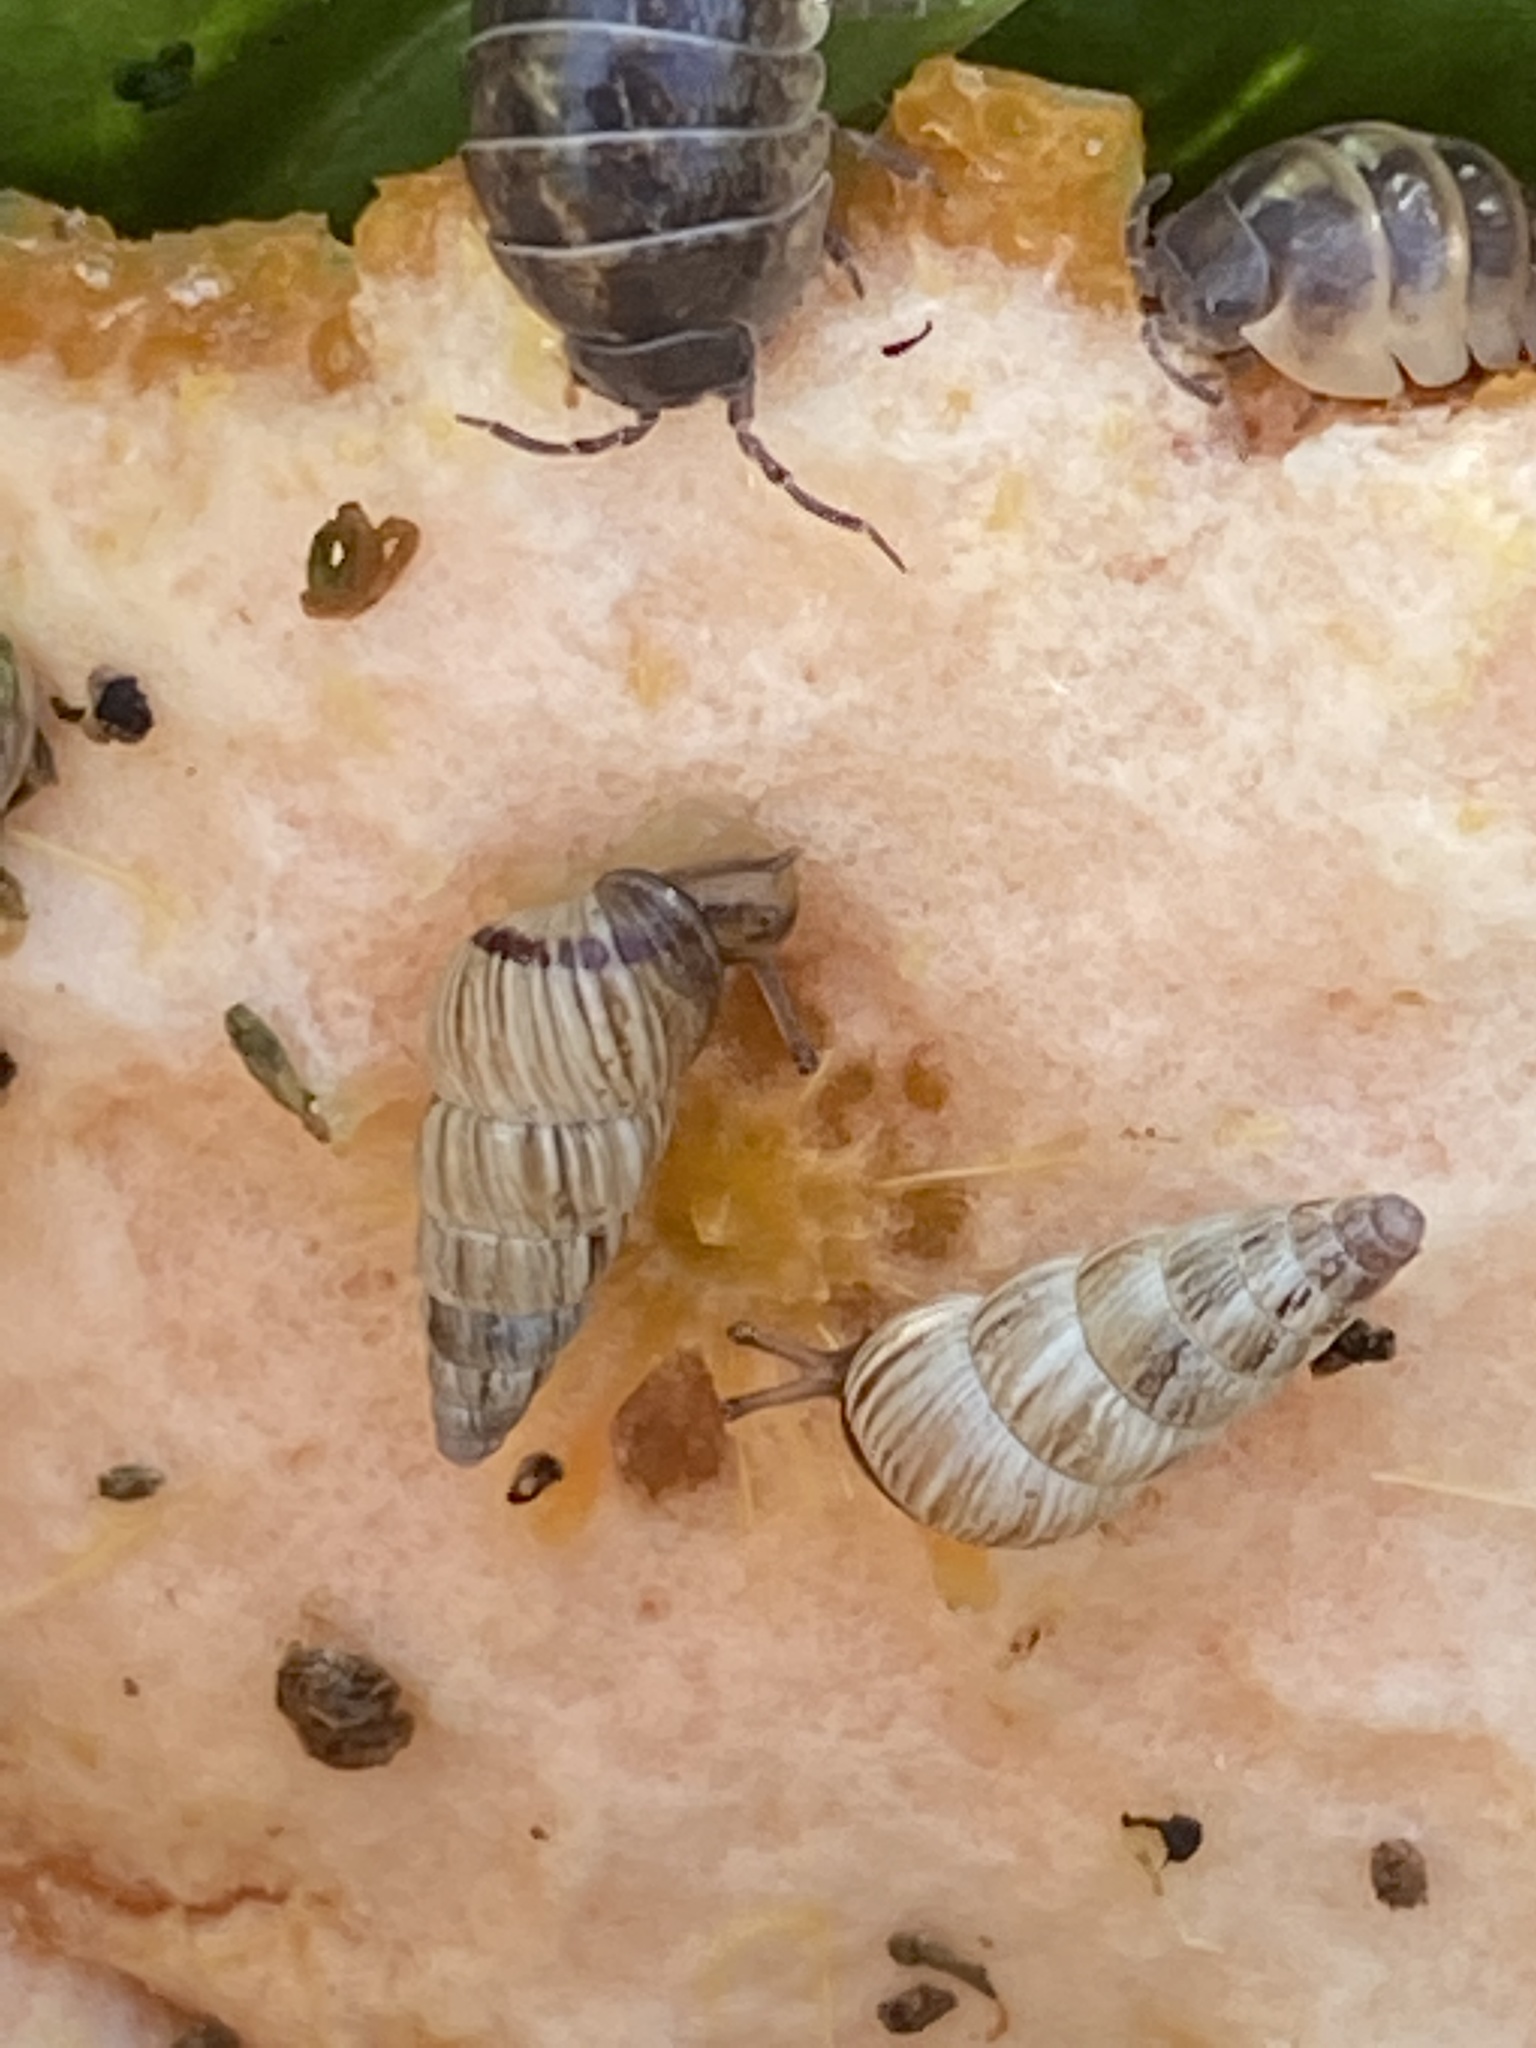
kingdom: Animalia
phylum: Mollusca
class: Gastropoda
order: Stylommatophora
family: Geomitridae
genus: Cochlicella
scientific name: Cochlicella acuta
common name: Pointed snail
